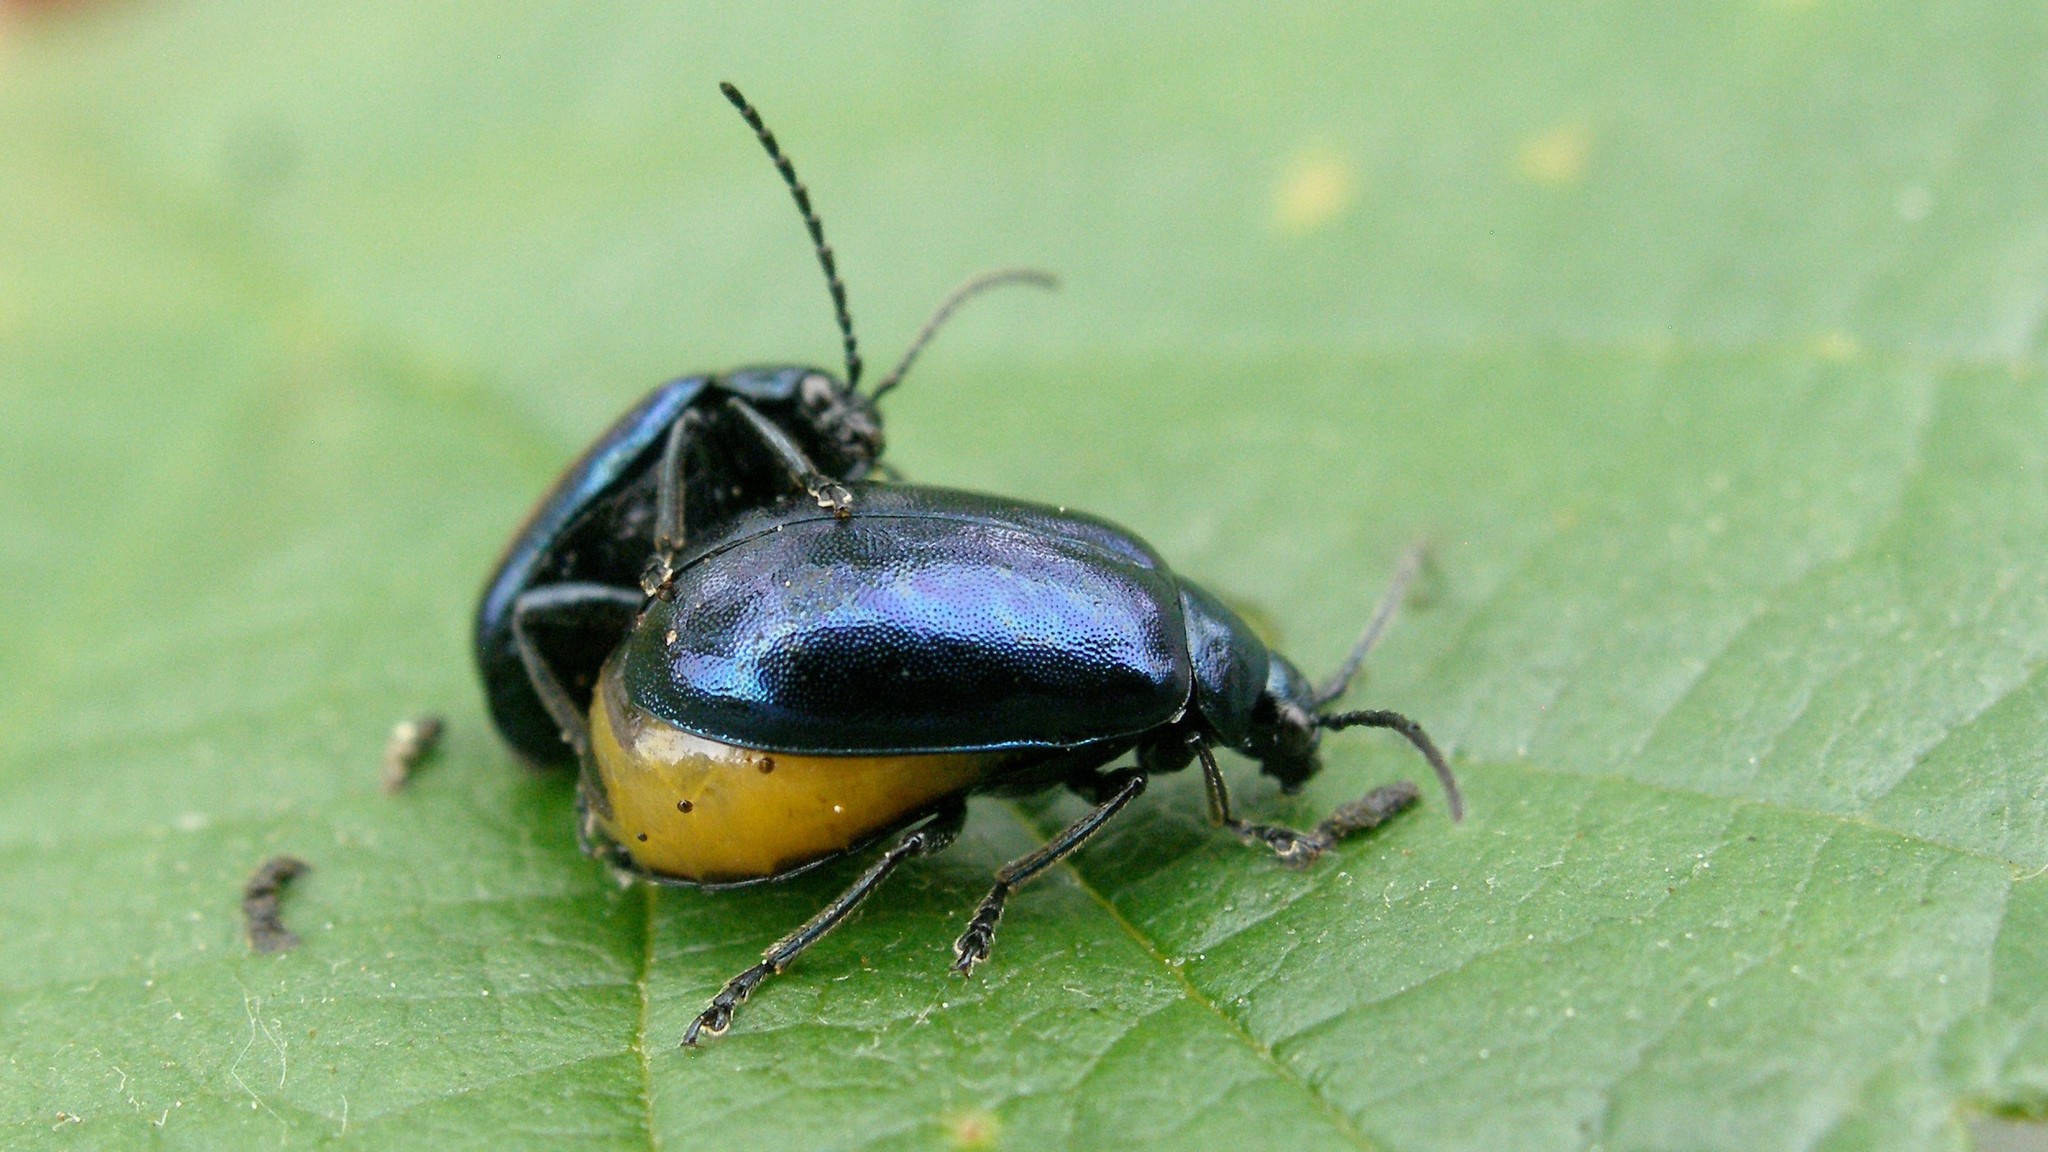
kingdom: Animalia
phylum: Arthropoda
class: Insecta
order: Coleoptera
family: Chrysomelidae
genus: Agelastica
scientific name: Agelastica alni
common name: Alder leaf beetle
